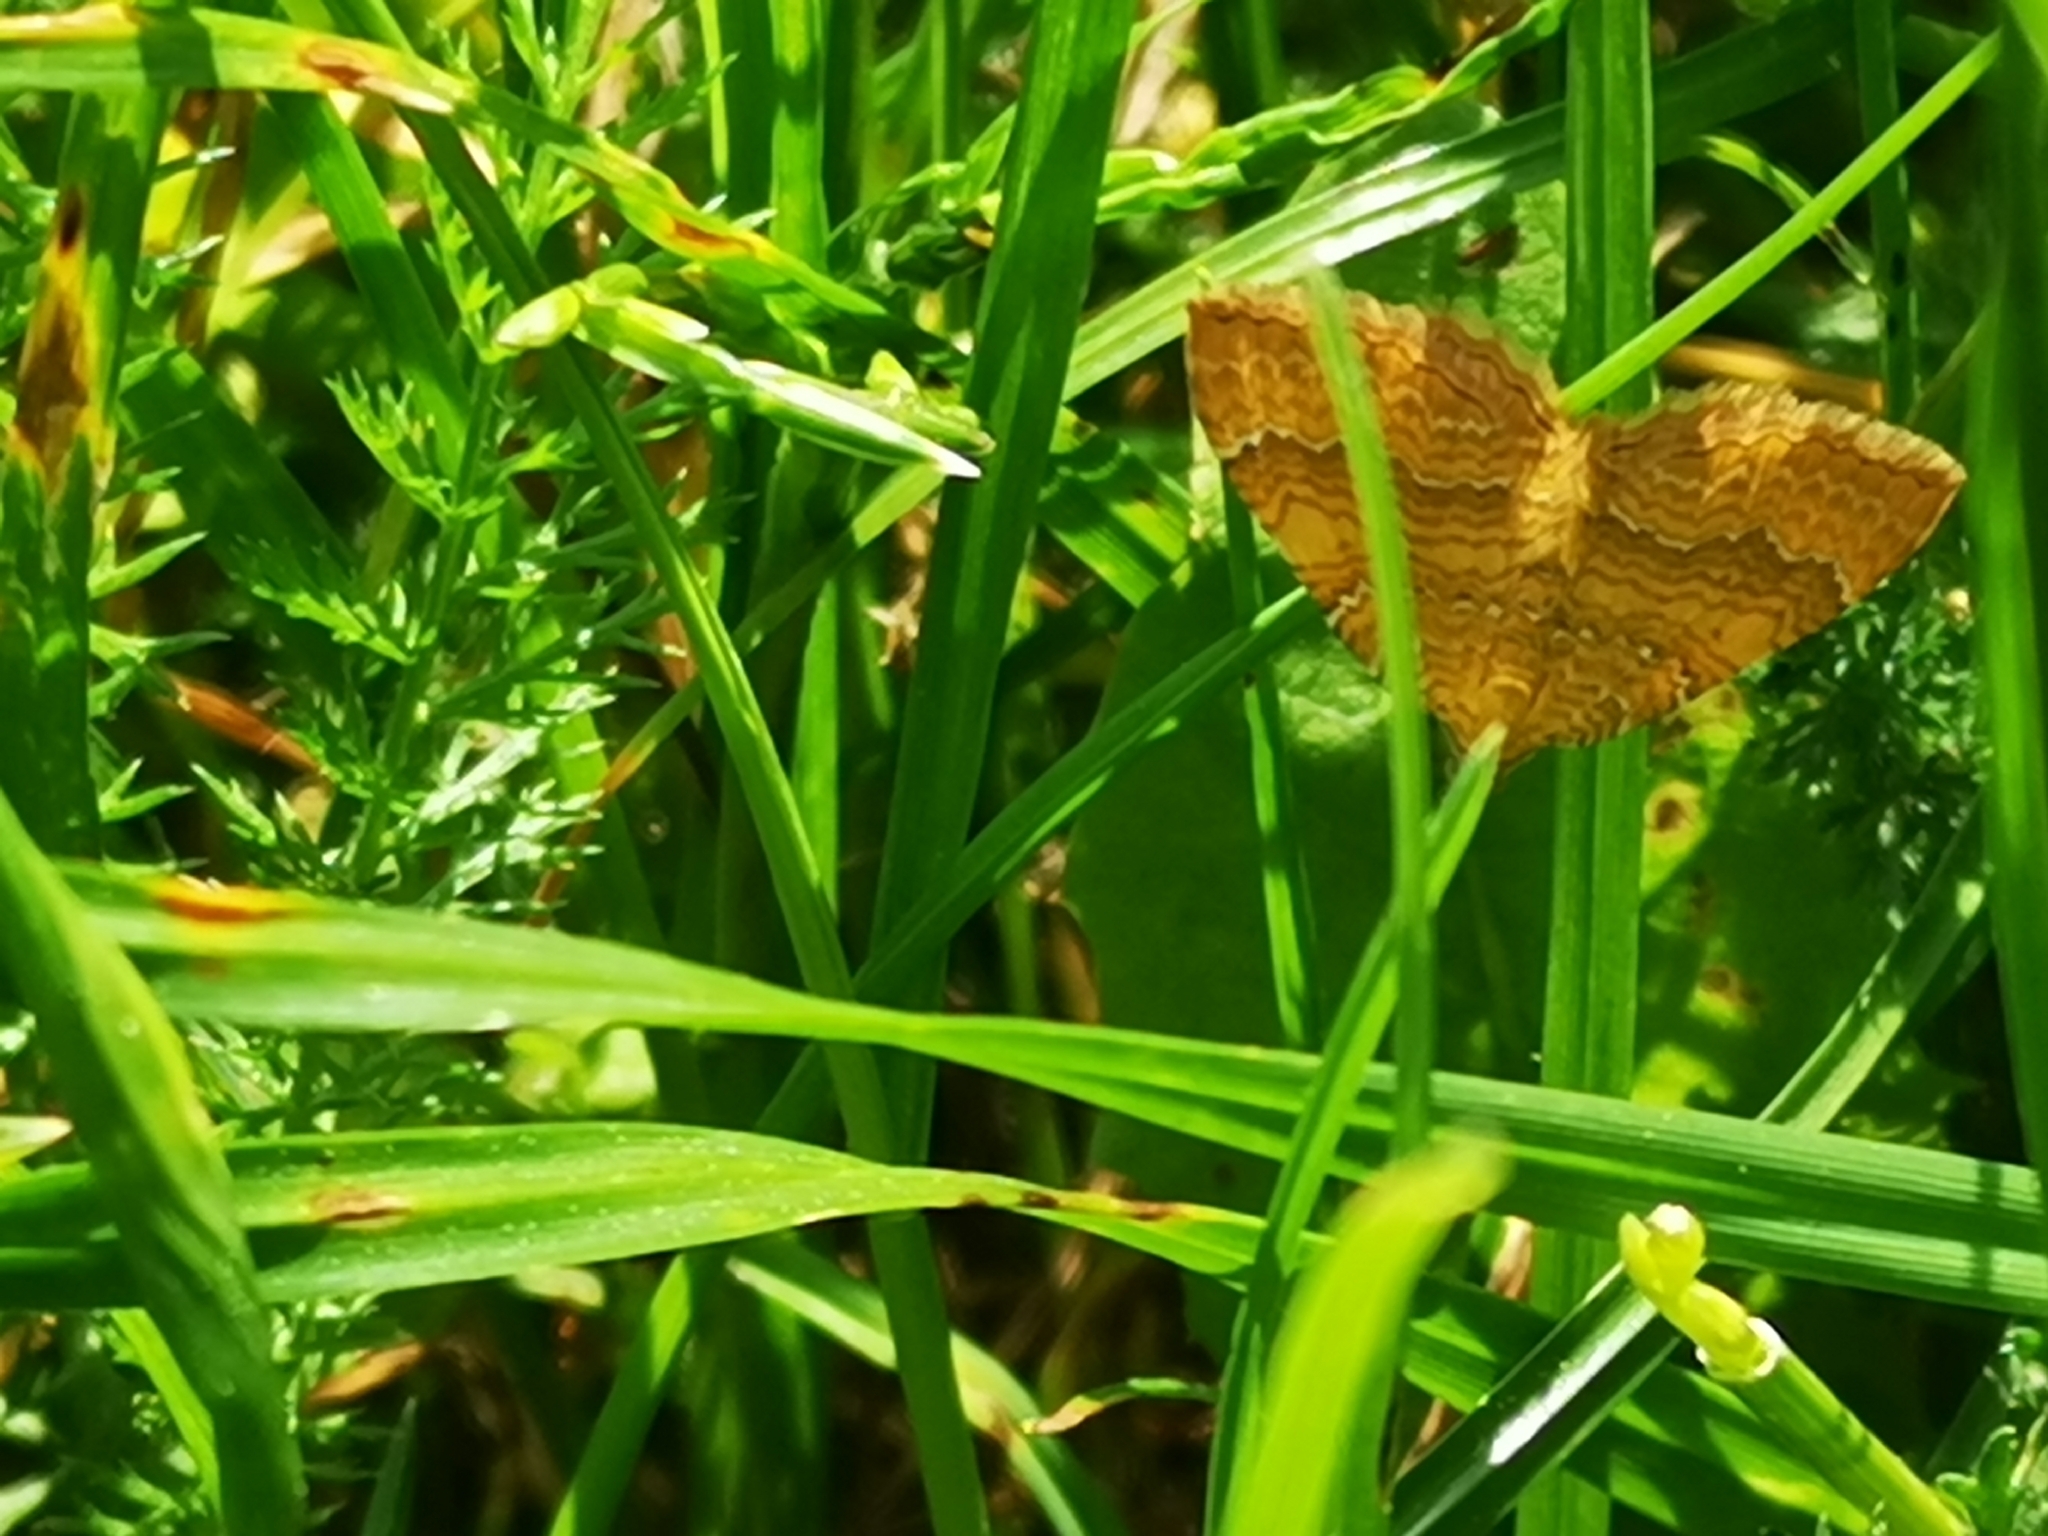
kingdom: Animalia
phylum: Arthropoda
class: Insecta
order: Lepidoptera
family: Geometridae
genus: Camptogramma
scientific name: Camptogramma bilineata
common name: Yellow shell
